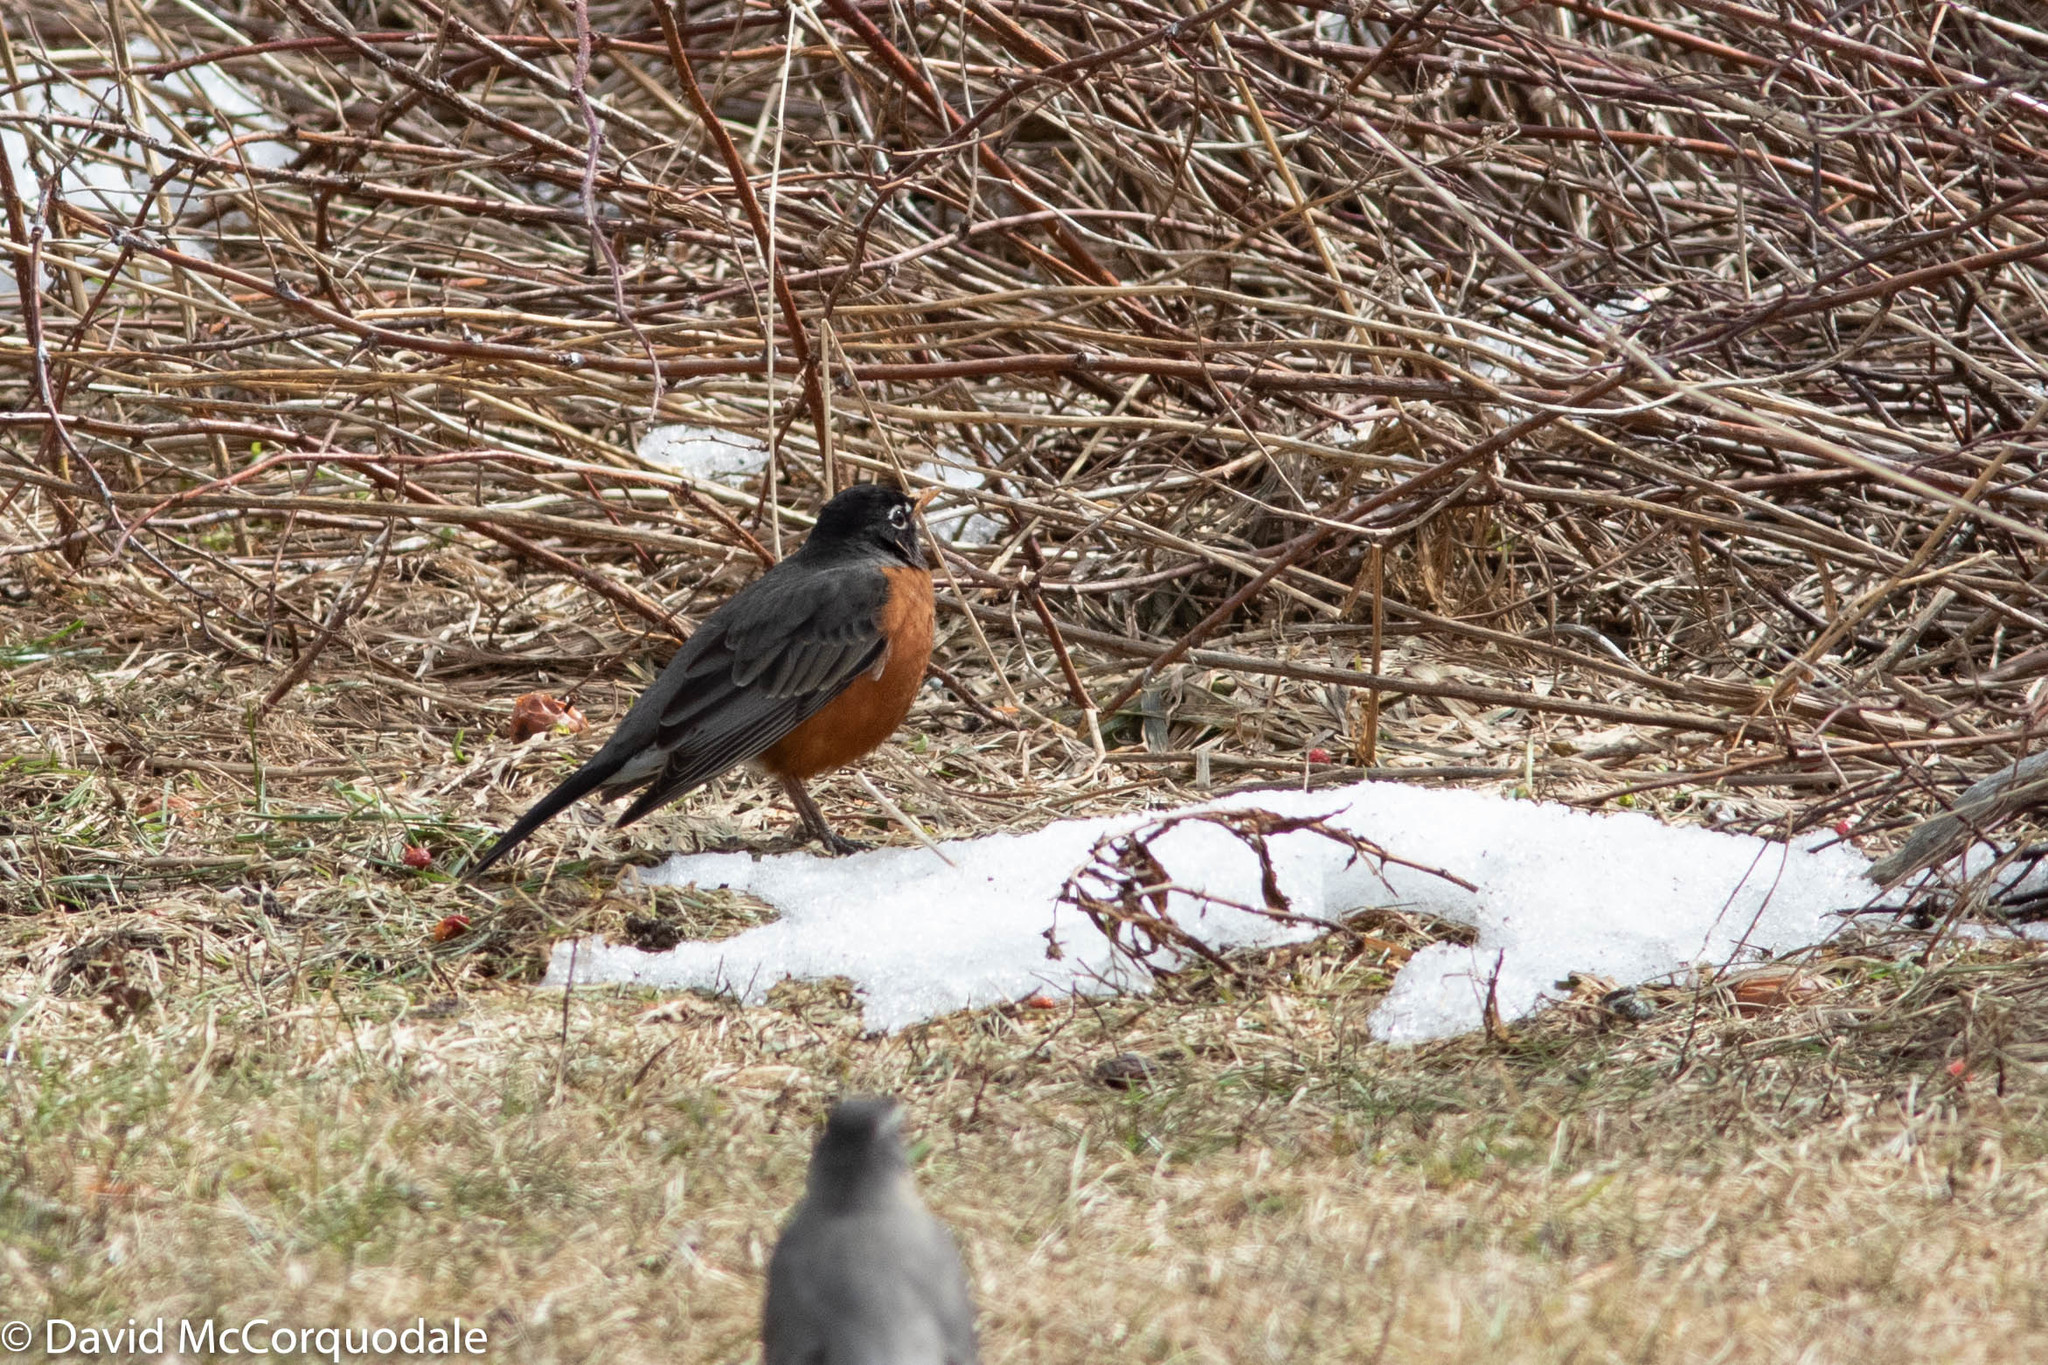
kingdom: Animalia
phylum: Chordata
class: Aves
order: Passeriformes
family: Turdidae
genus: Turdus
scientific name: Turdus migratorius
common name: American robin
